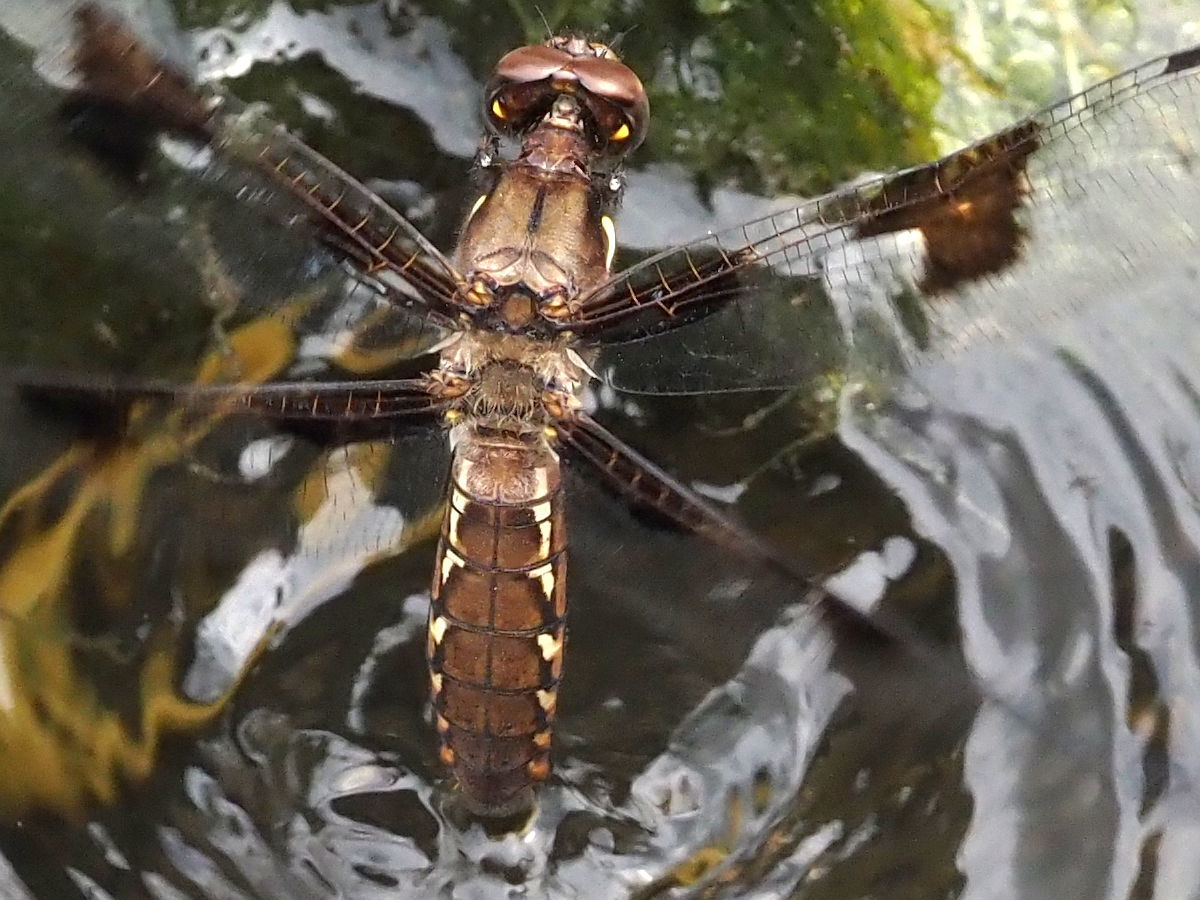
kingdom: Animalia
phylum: Arthropoda
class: Insecta
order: Odonata
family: Libellulidae
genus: Plathemis
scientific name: Plathemis lydia
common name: Common whitetail
